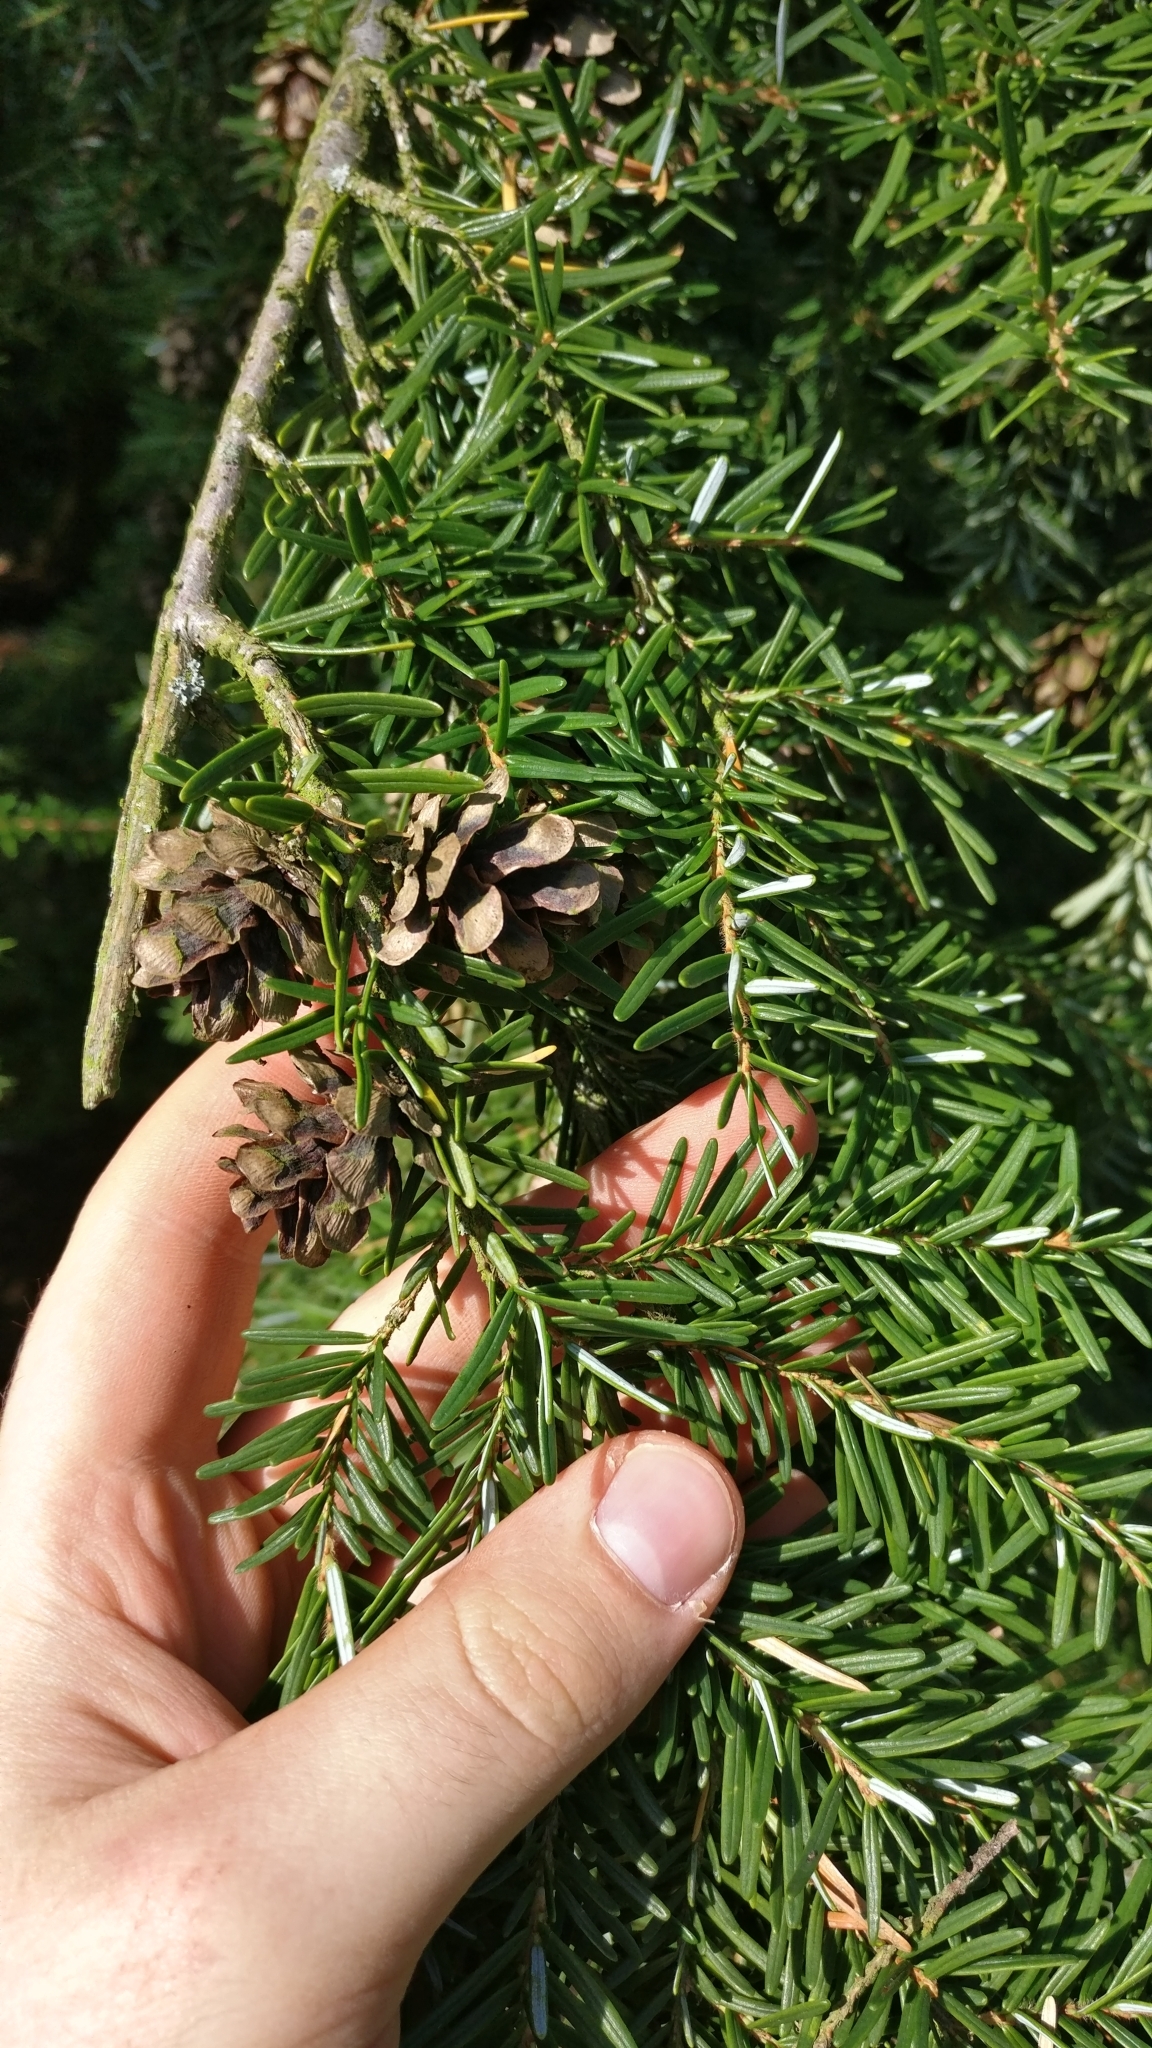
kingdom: Plantae
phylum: Tracheophyta
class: Pinopsida
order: Pinales
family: Pinaceae
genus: Tsuga
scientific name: Tsuga heterophylla
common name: Western hemlock
